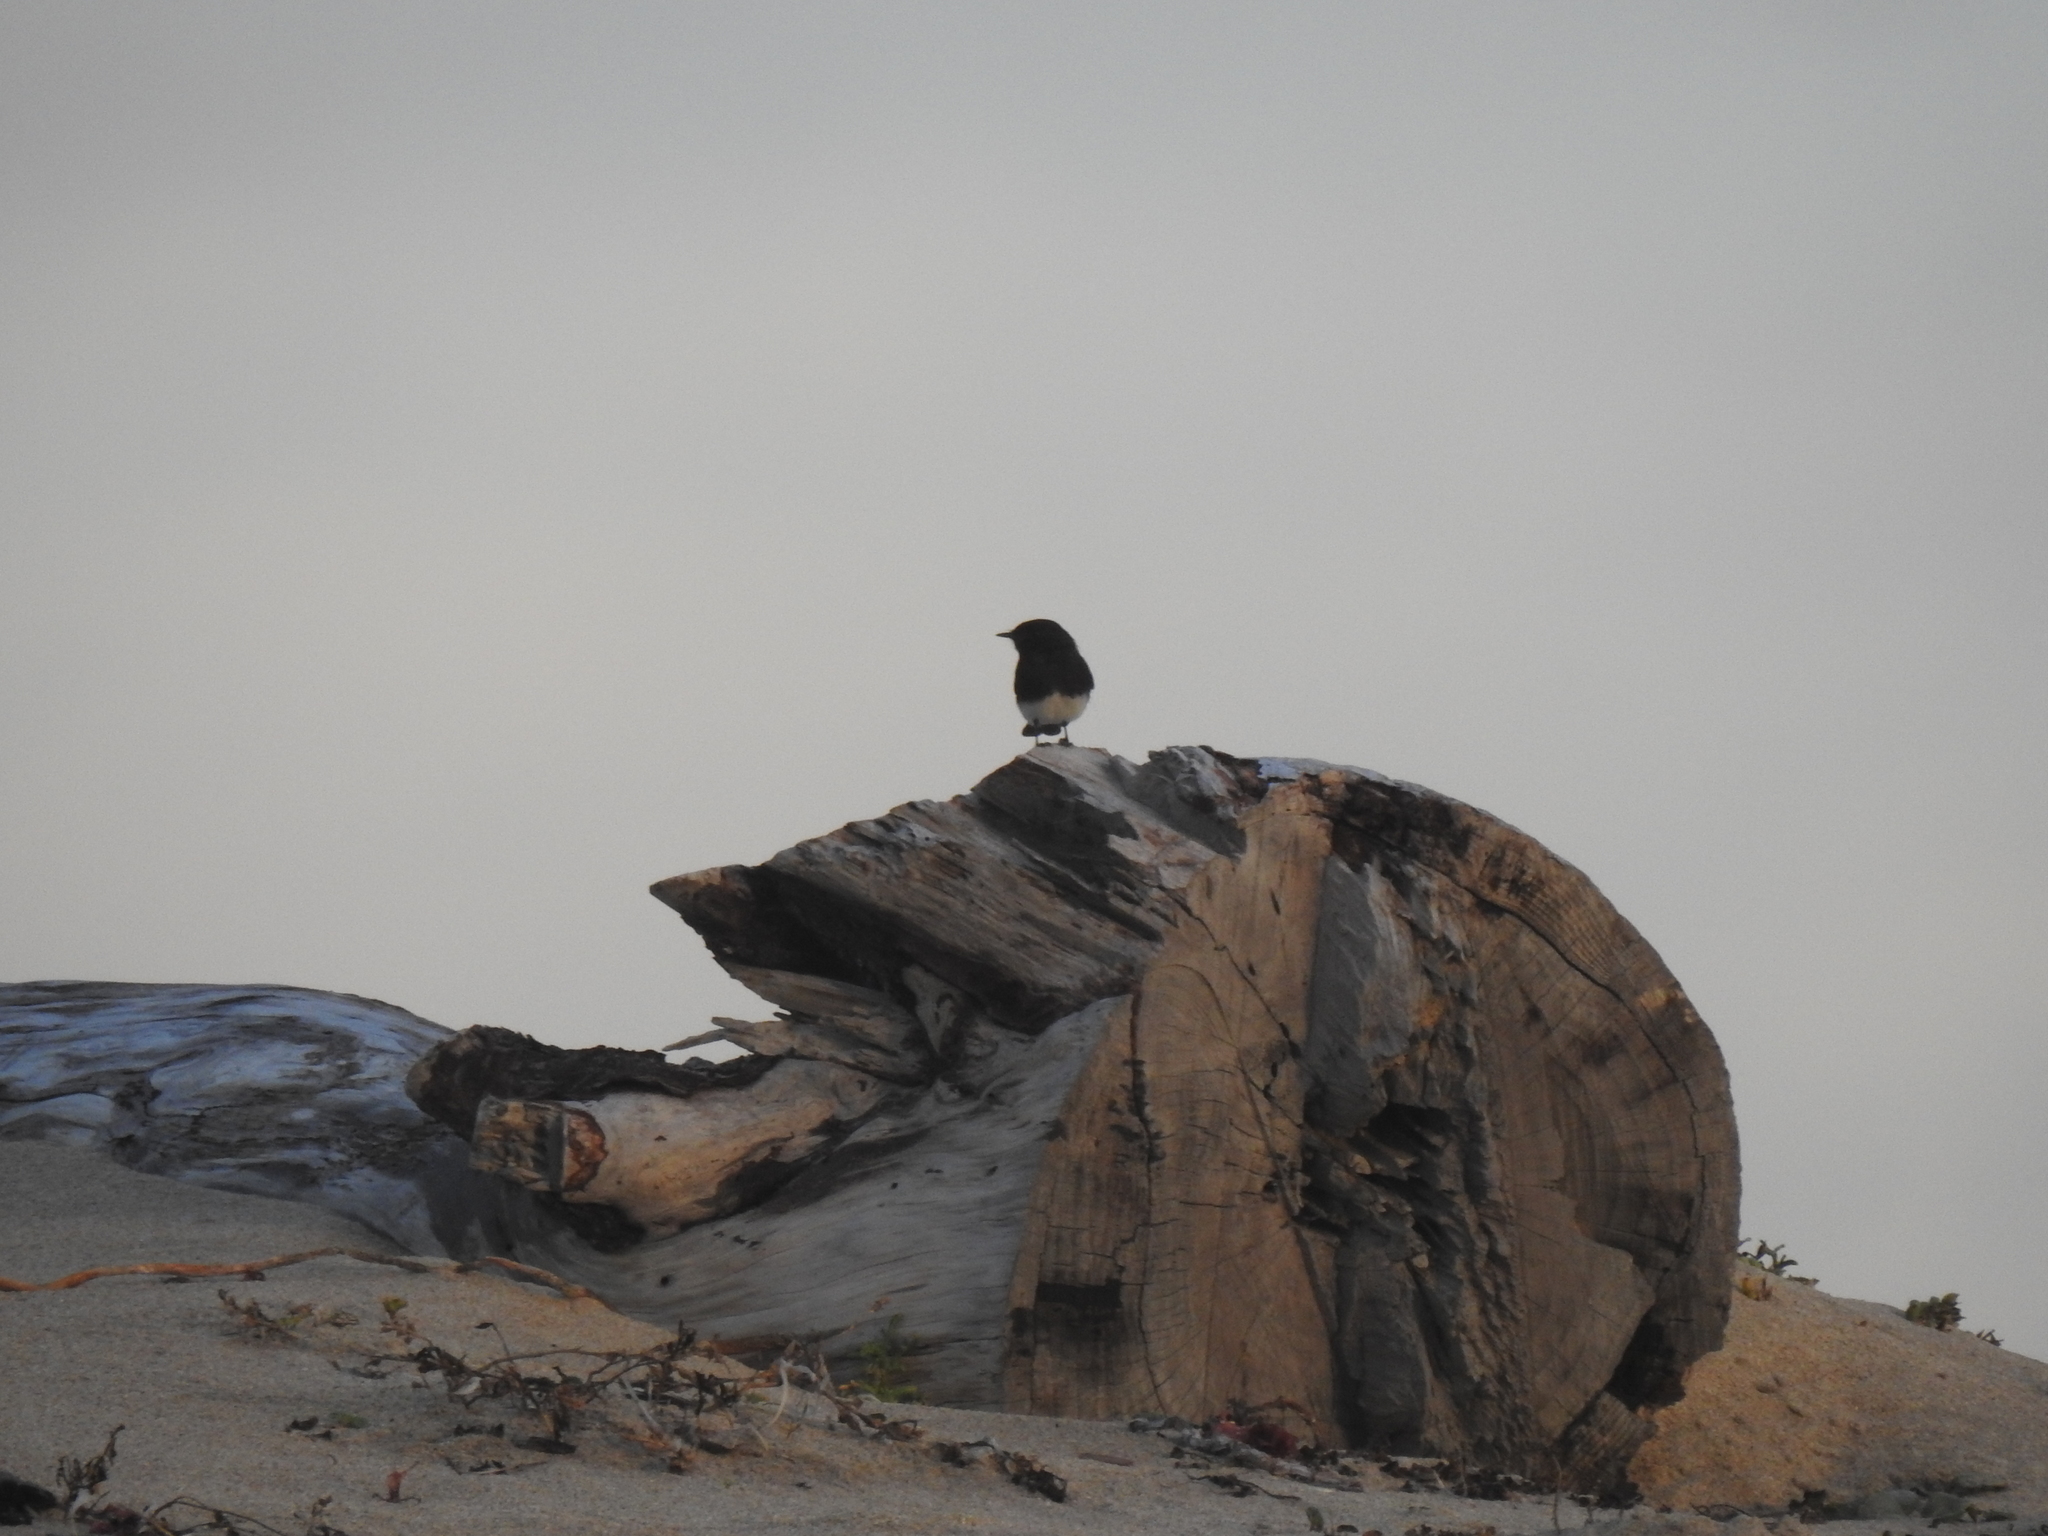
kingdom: Animalia
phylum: Chordata
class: Aves
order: Passeriformes
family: Tyrannidae
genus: Sayornis
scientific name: Sayornis nigricans
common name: Black phoebe
